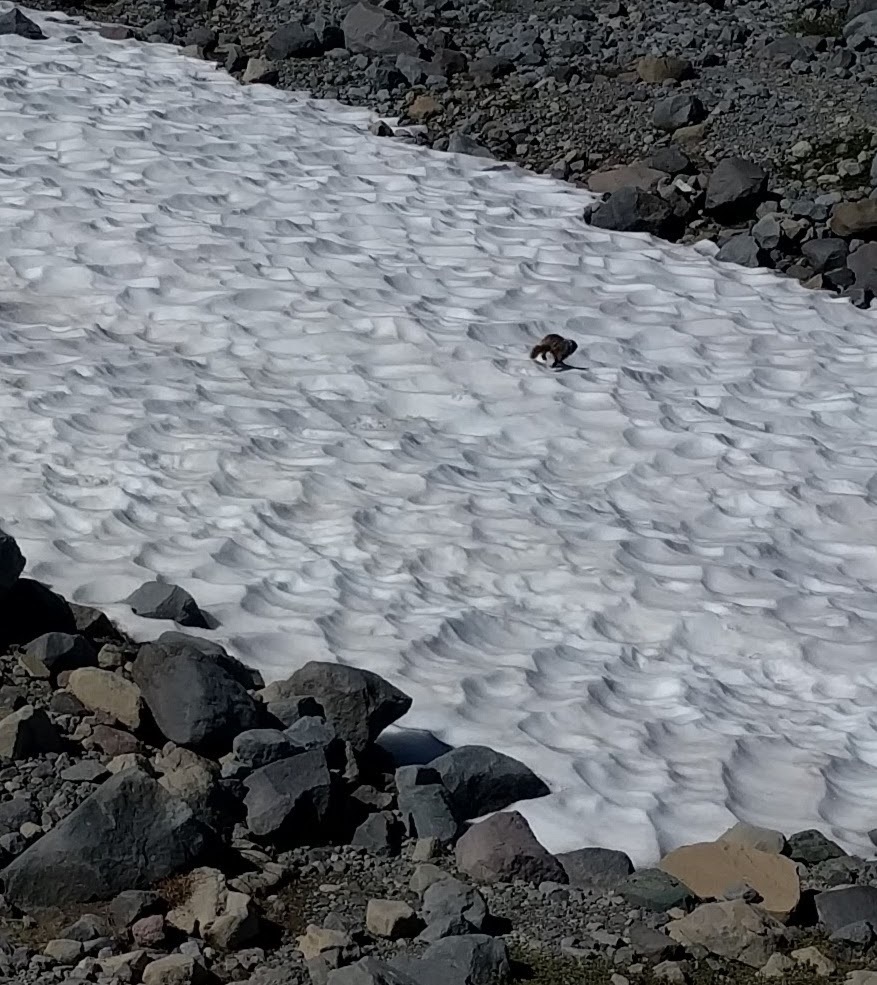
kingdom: Animalia
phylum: Chordata
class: Mammalia
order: Rodentia
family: Sciuridae
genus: Marmota
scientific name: Marmota caligata
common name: Hoary marmot
